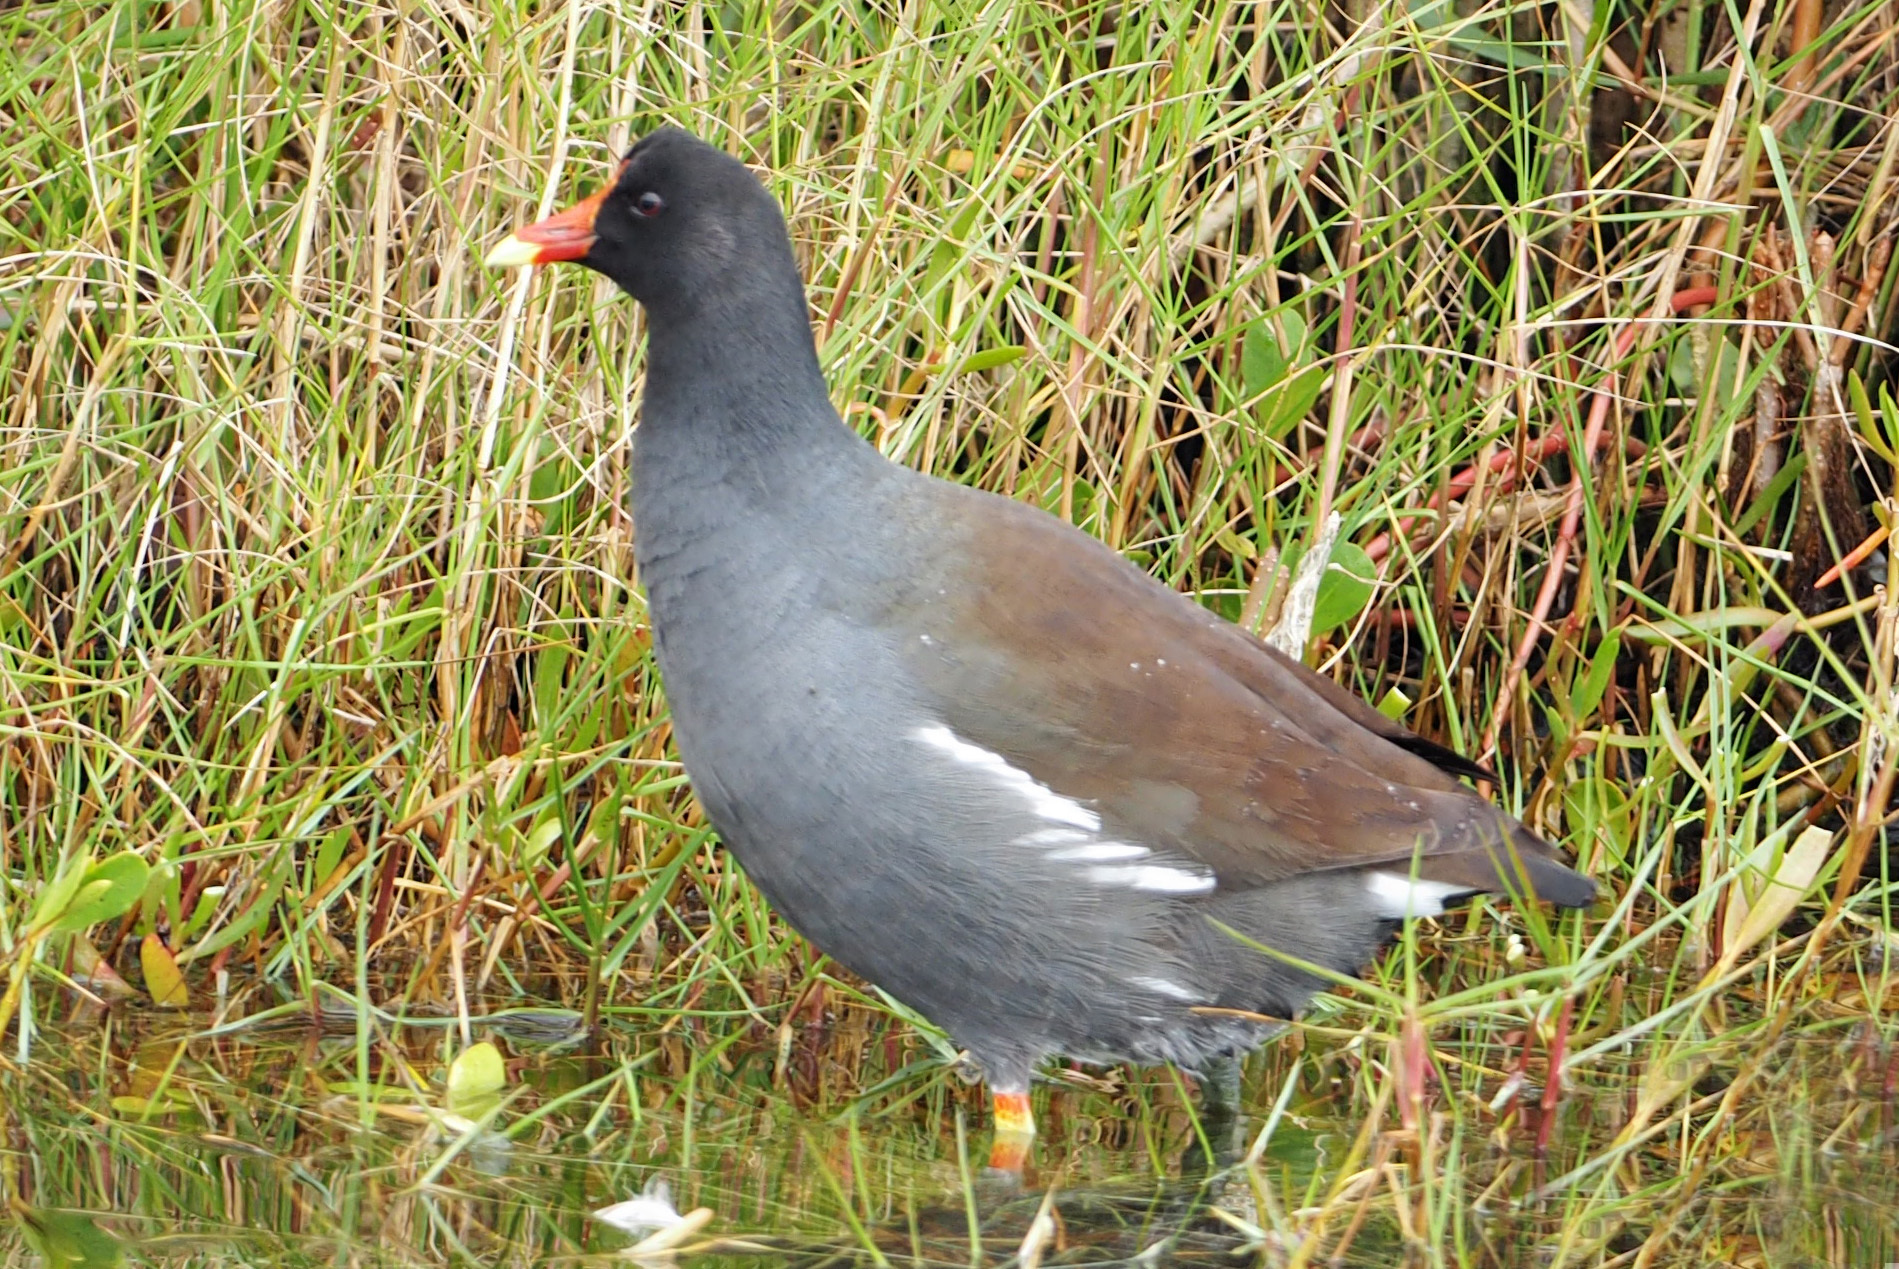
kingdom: Animalia
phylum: Chordata
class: Aves
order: Gruiformes
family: Rallidae
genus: Gallinula
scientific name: Gallinula chloropus
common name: Common moorhen
